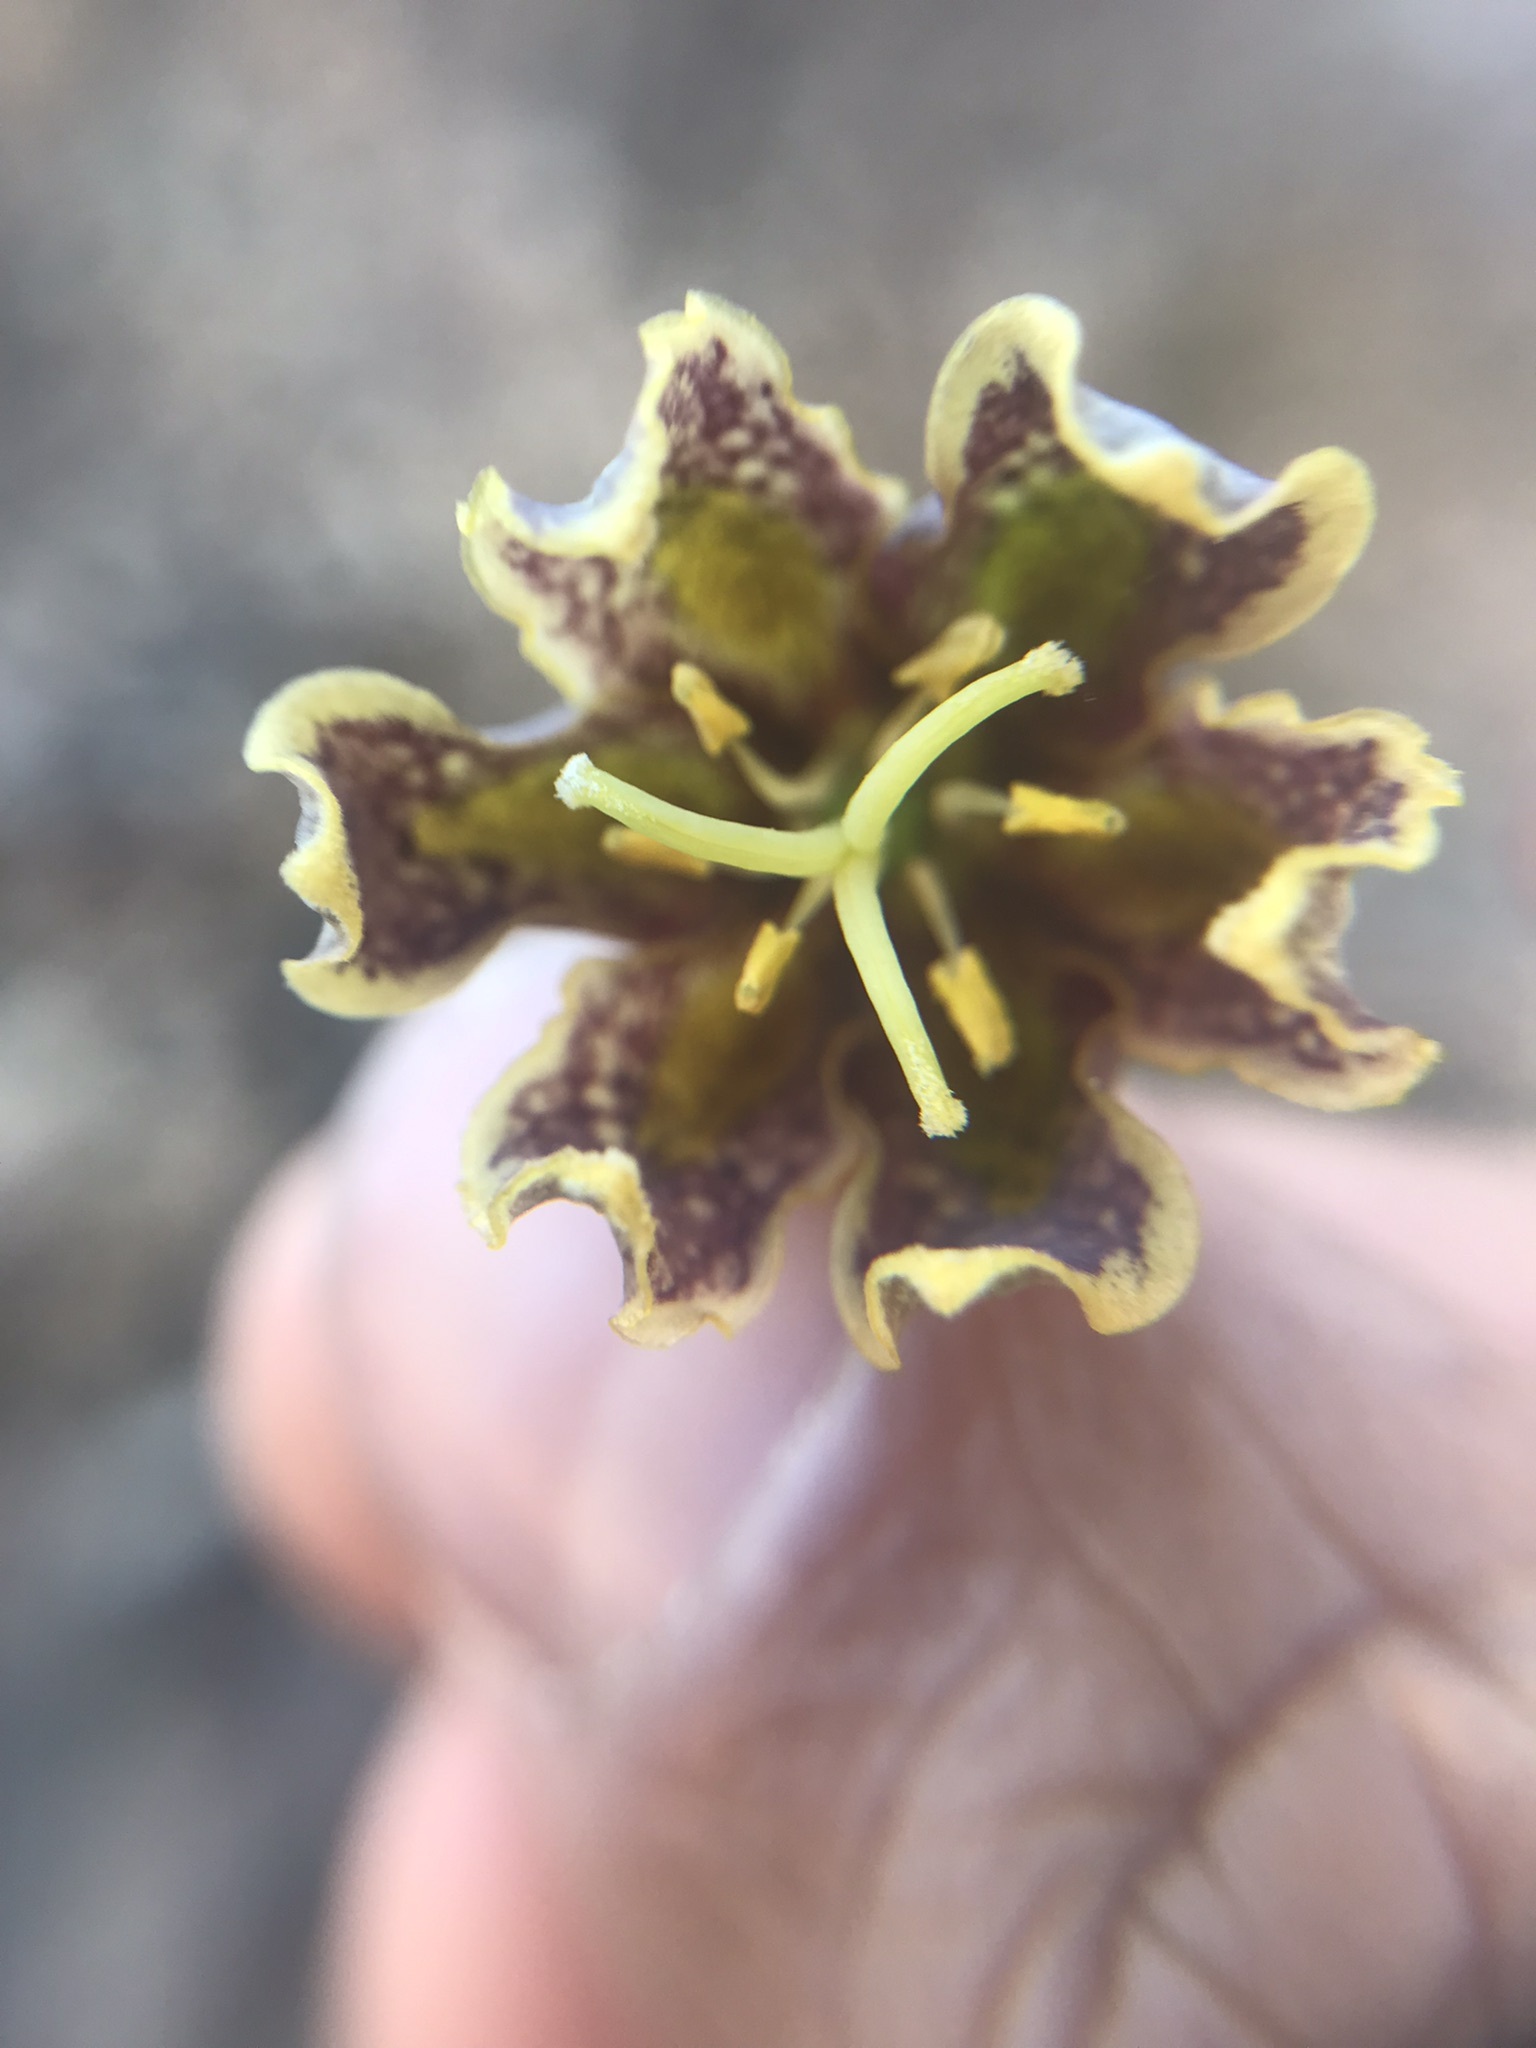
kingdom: Plantae
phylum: Tracheophyta
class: Liliopsida
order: Liliales
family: Liliaceae
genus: Fritillaria
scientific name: Fritillaria affinis
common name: Ojai fritillary
